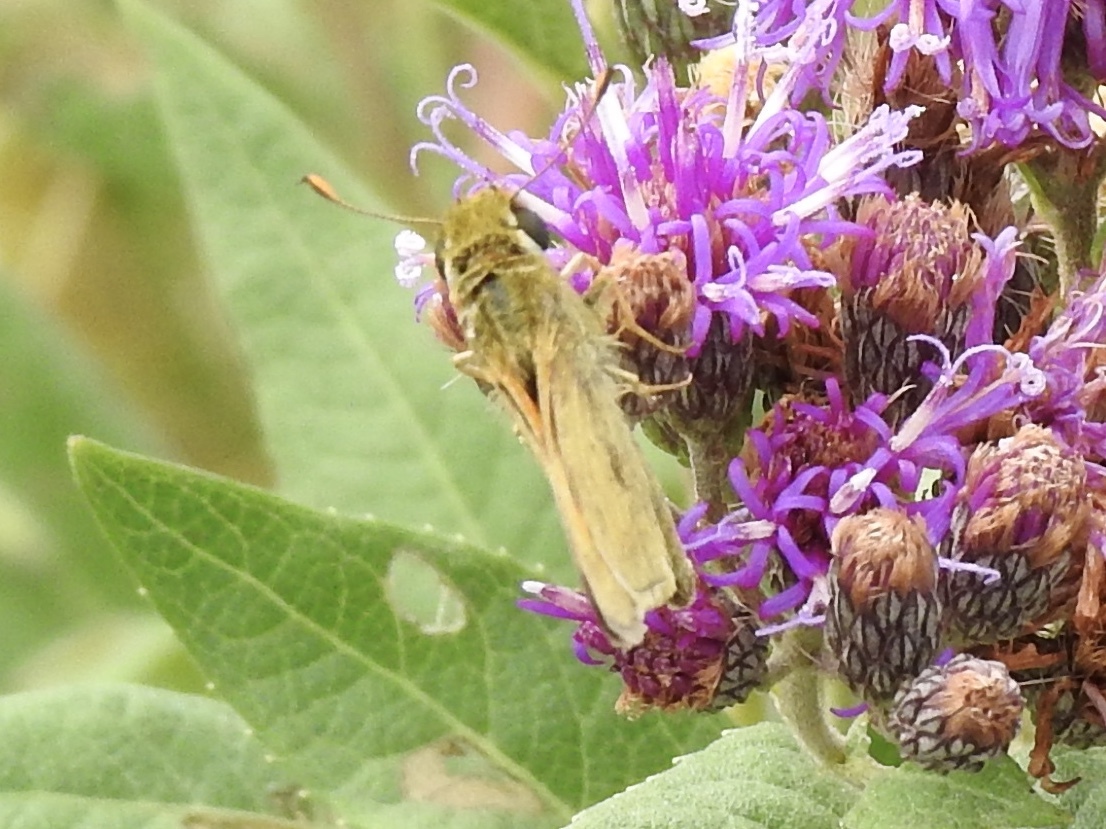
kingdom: Animalia
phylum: Arthropoda
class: Insecta
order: Lepidoptera
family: Hesperiidae
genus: Atalopedes
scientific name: Atalopedes
